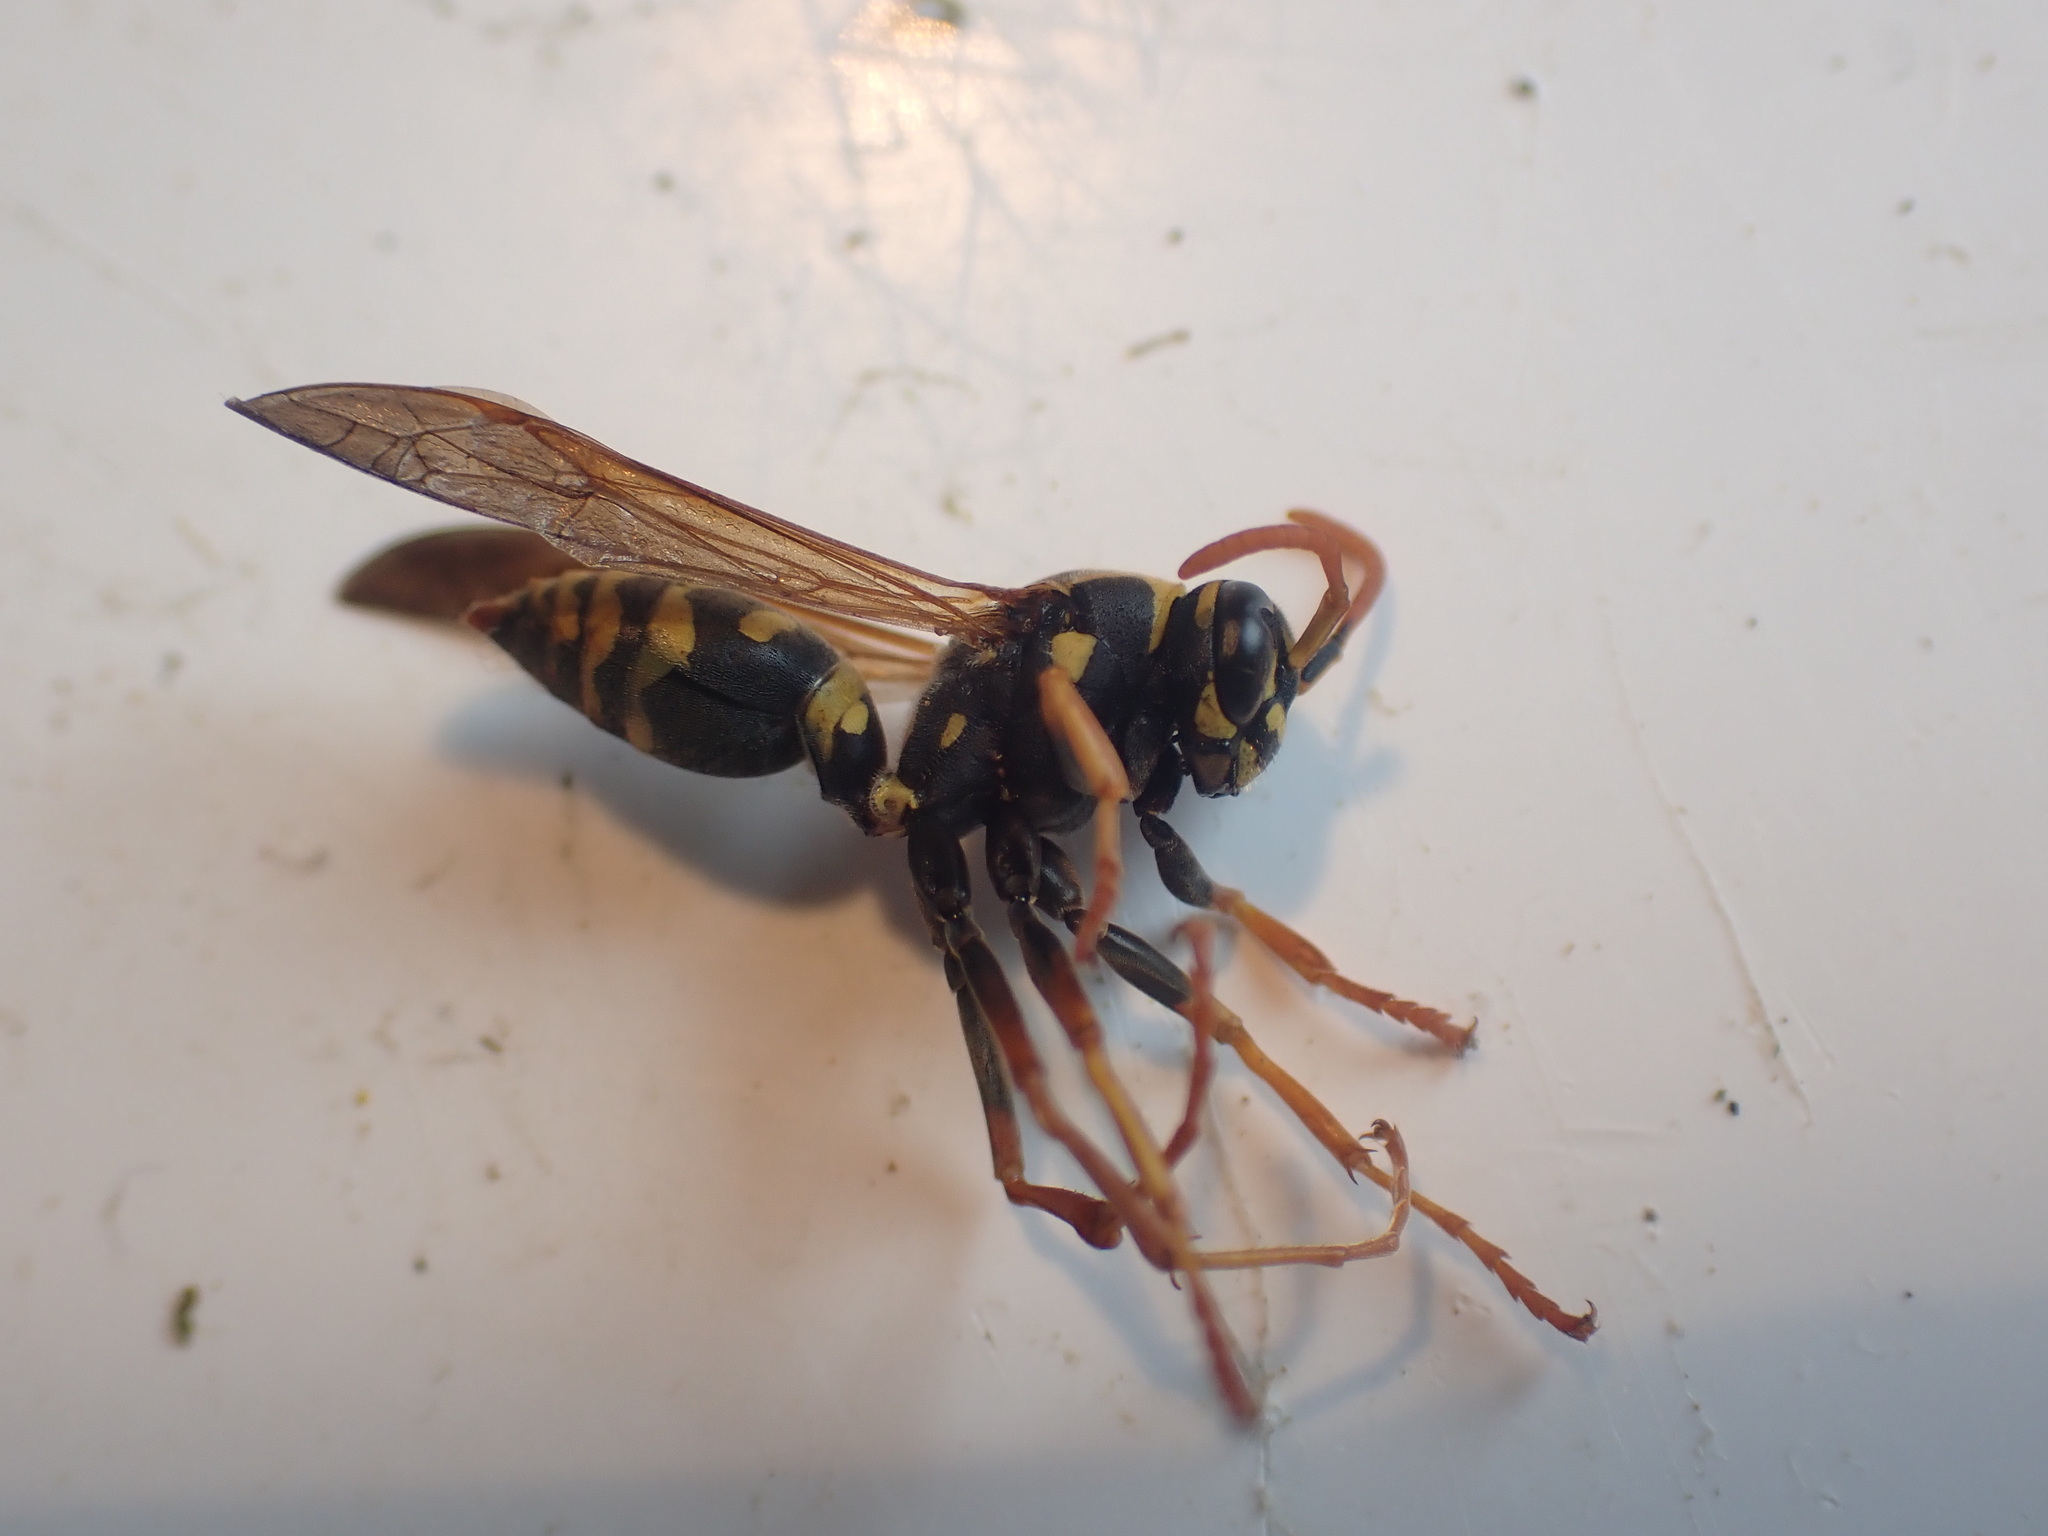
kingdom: Animalia
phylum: Arthropoda
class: Insecta
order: Hymenoptera
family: Eumenidae
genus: Polistes
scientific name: Polistes chinensis
